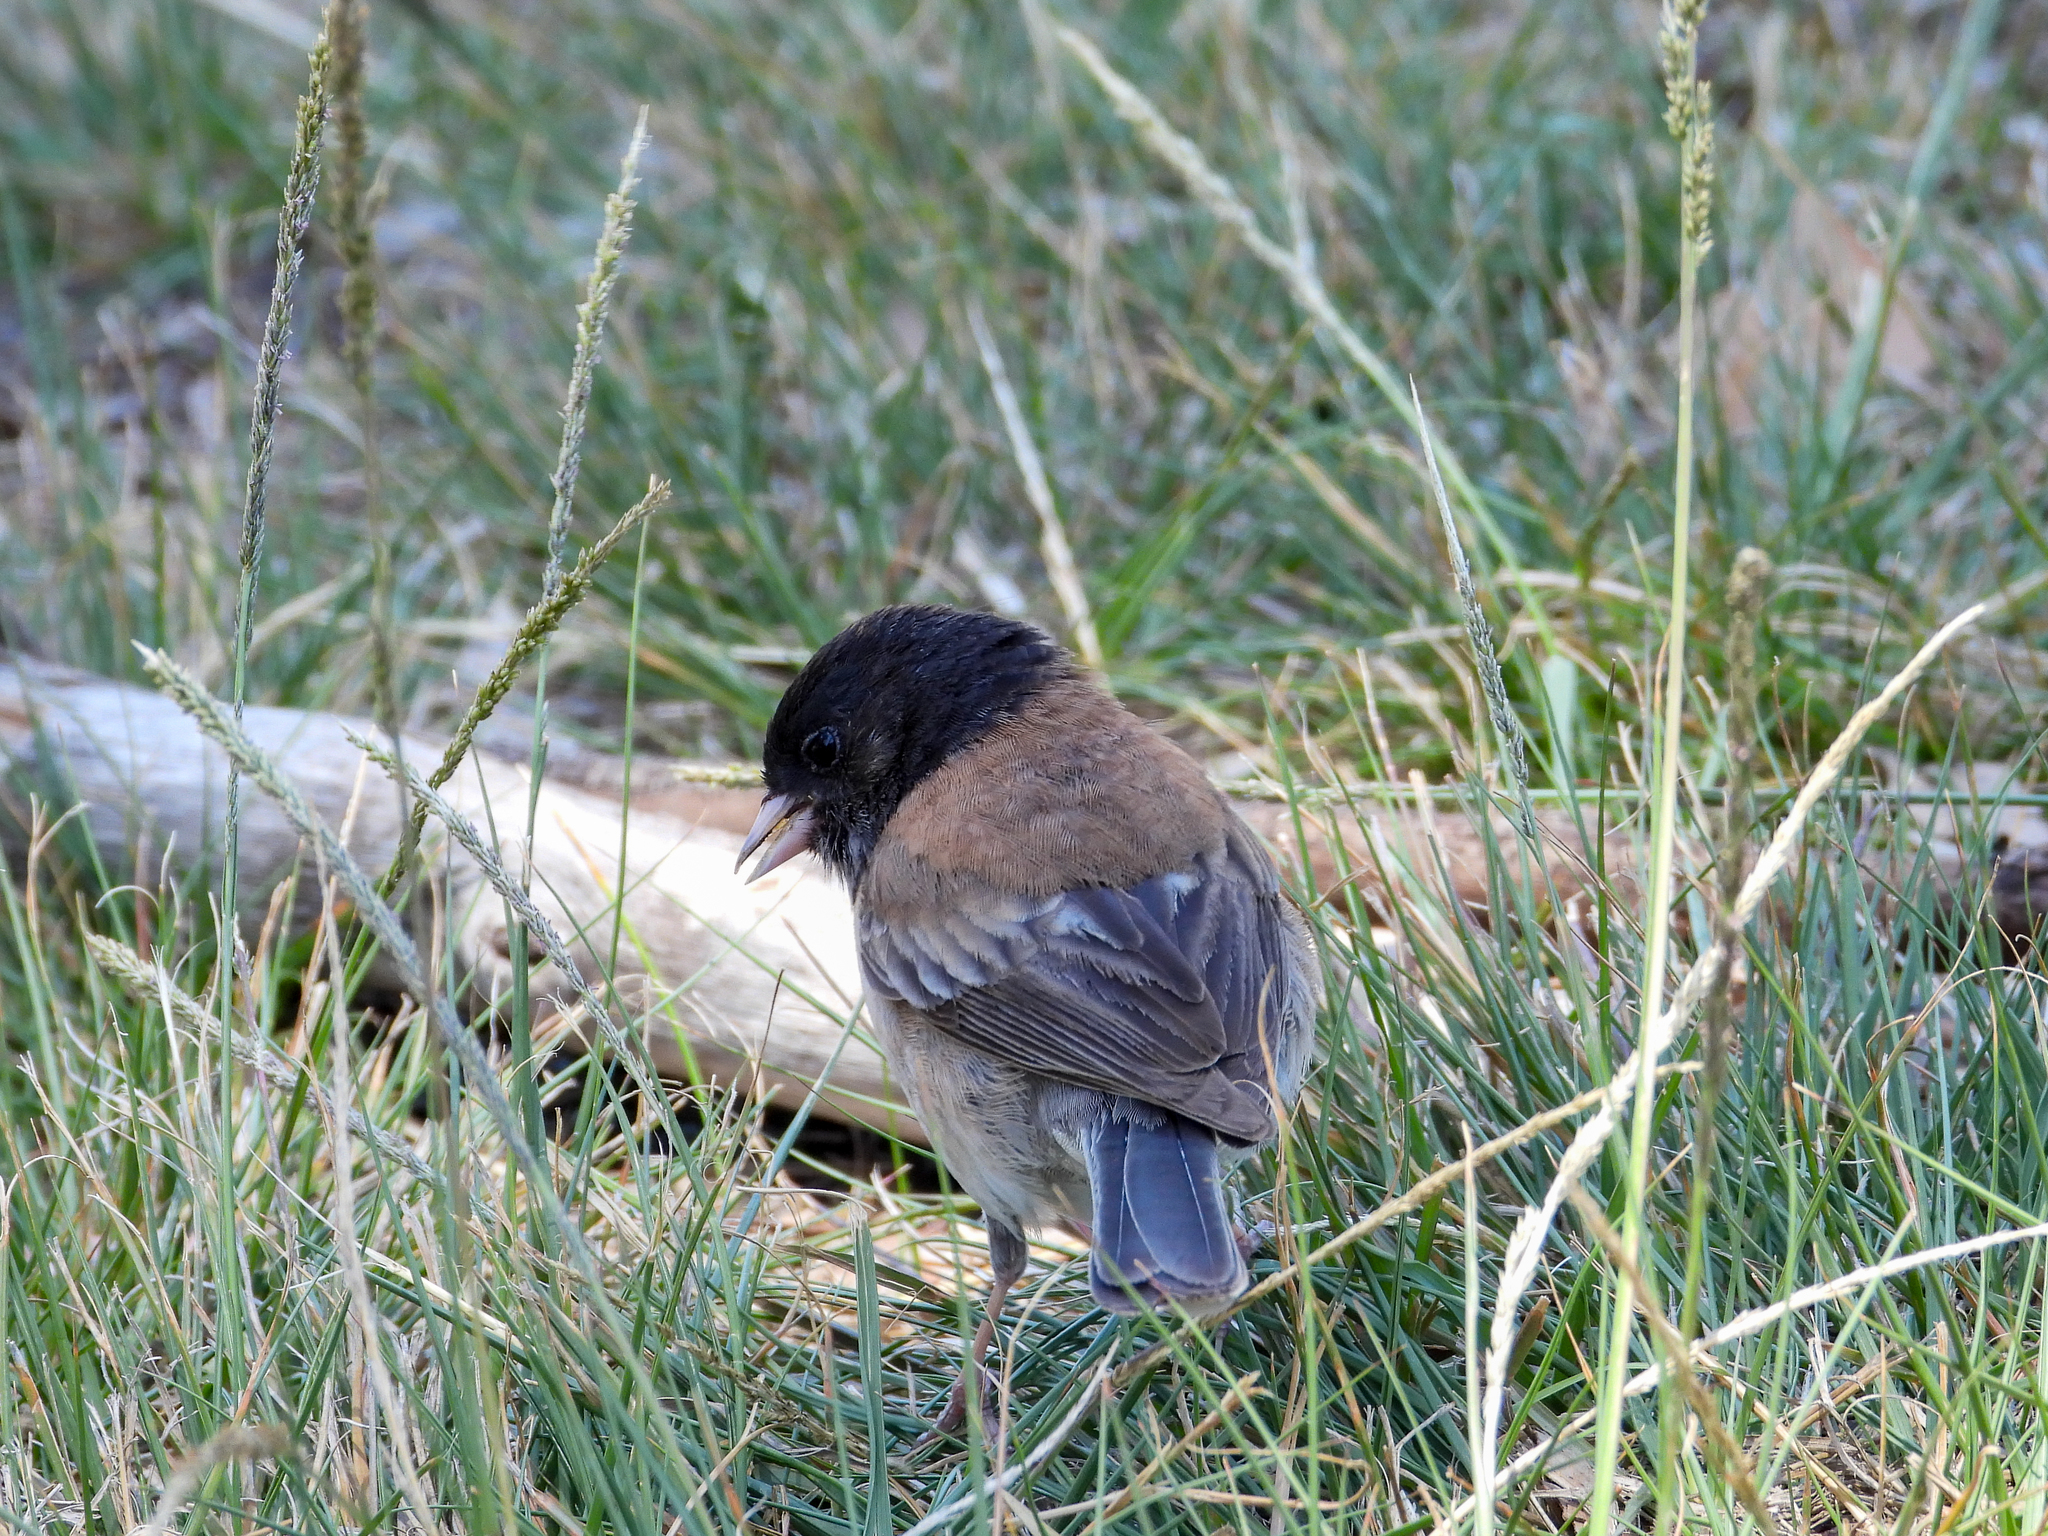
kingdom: Animalia
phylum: Chordata
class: Aves
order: Passeriformes
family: Passerellidae
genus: Junco
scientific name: Junco hyemalis
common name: Dark-eyed junco
